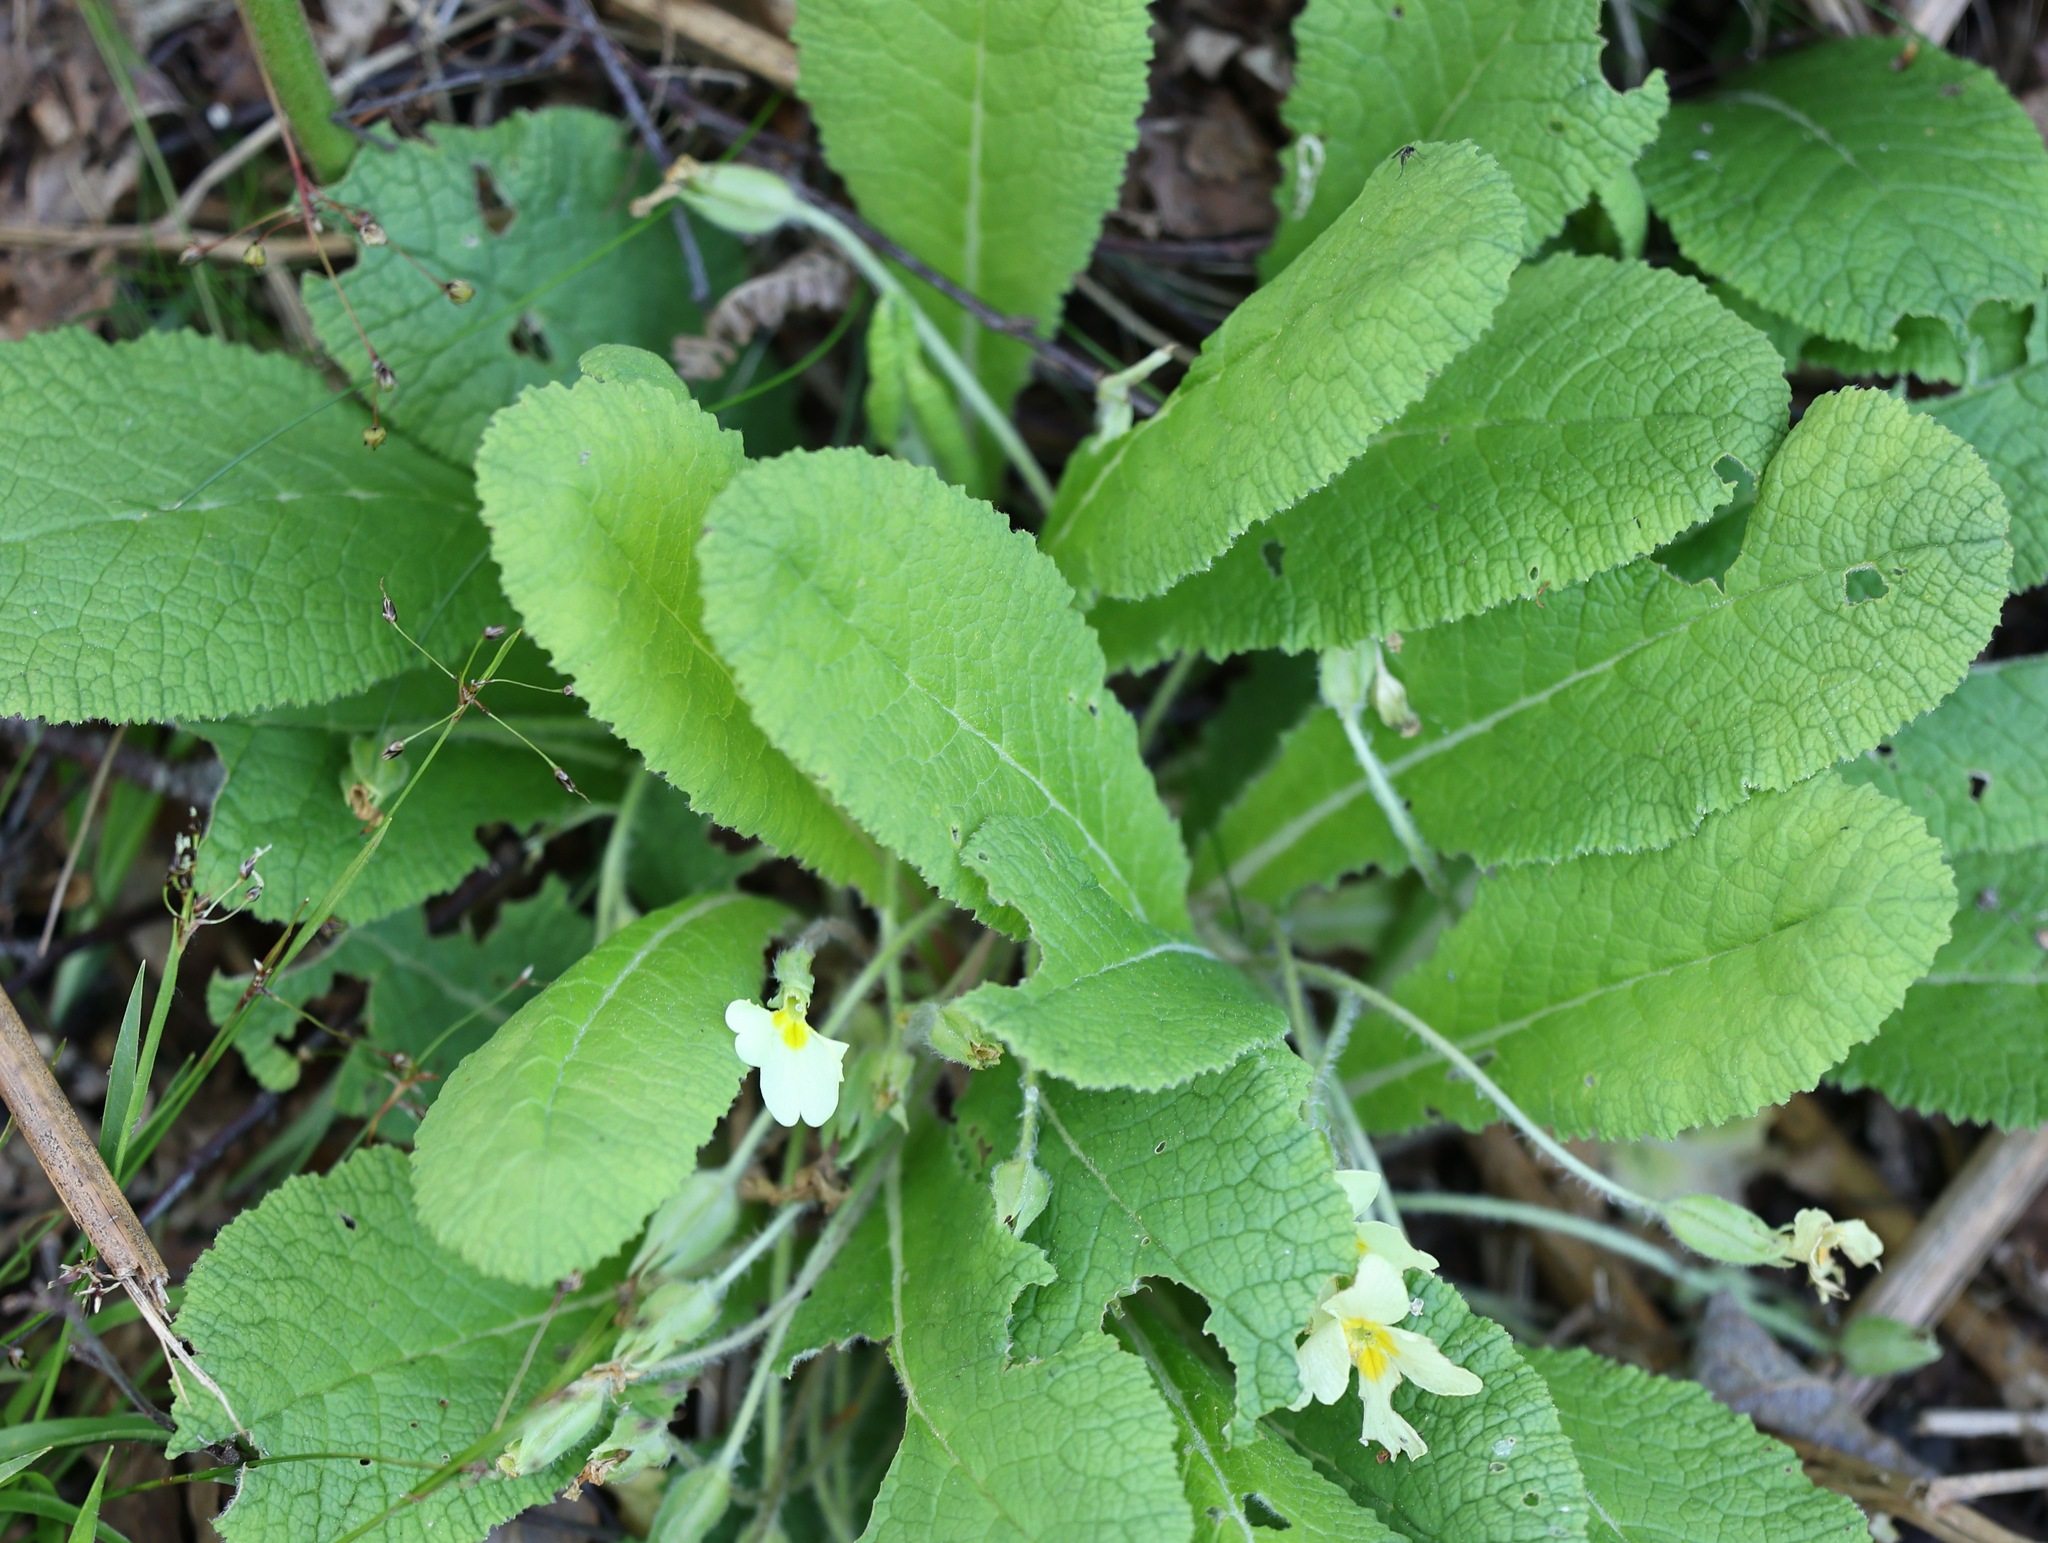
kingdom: Plantae
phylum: Tracheophyta
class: Magnoliopsida
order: Ericales
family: Primulaceae
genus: Primula
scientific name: Primula vulgaris
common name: Primrose
